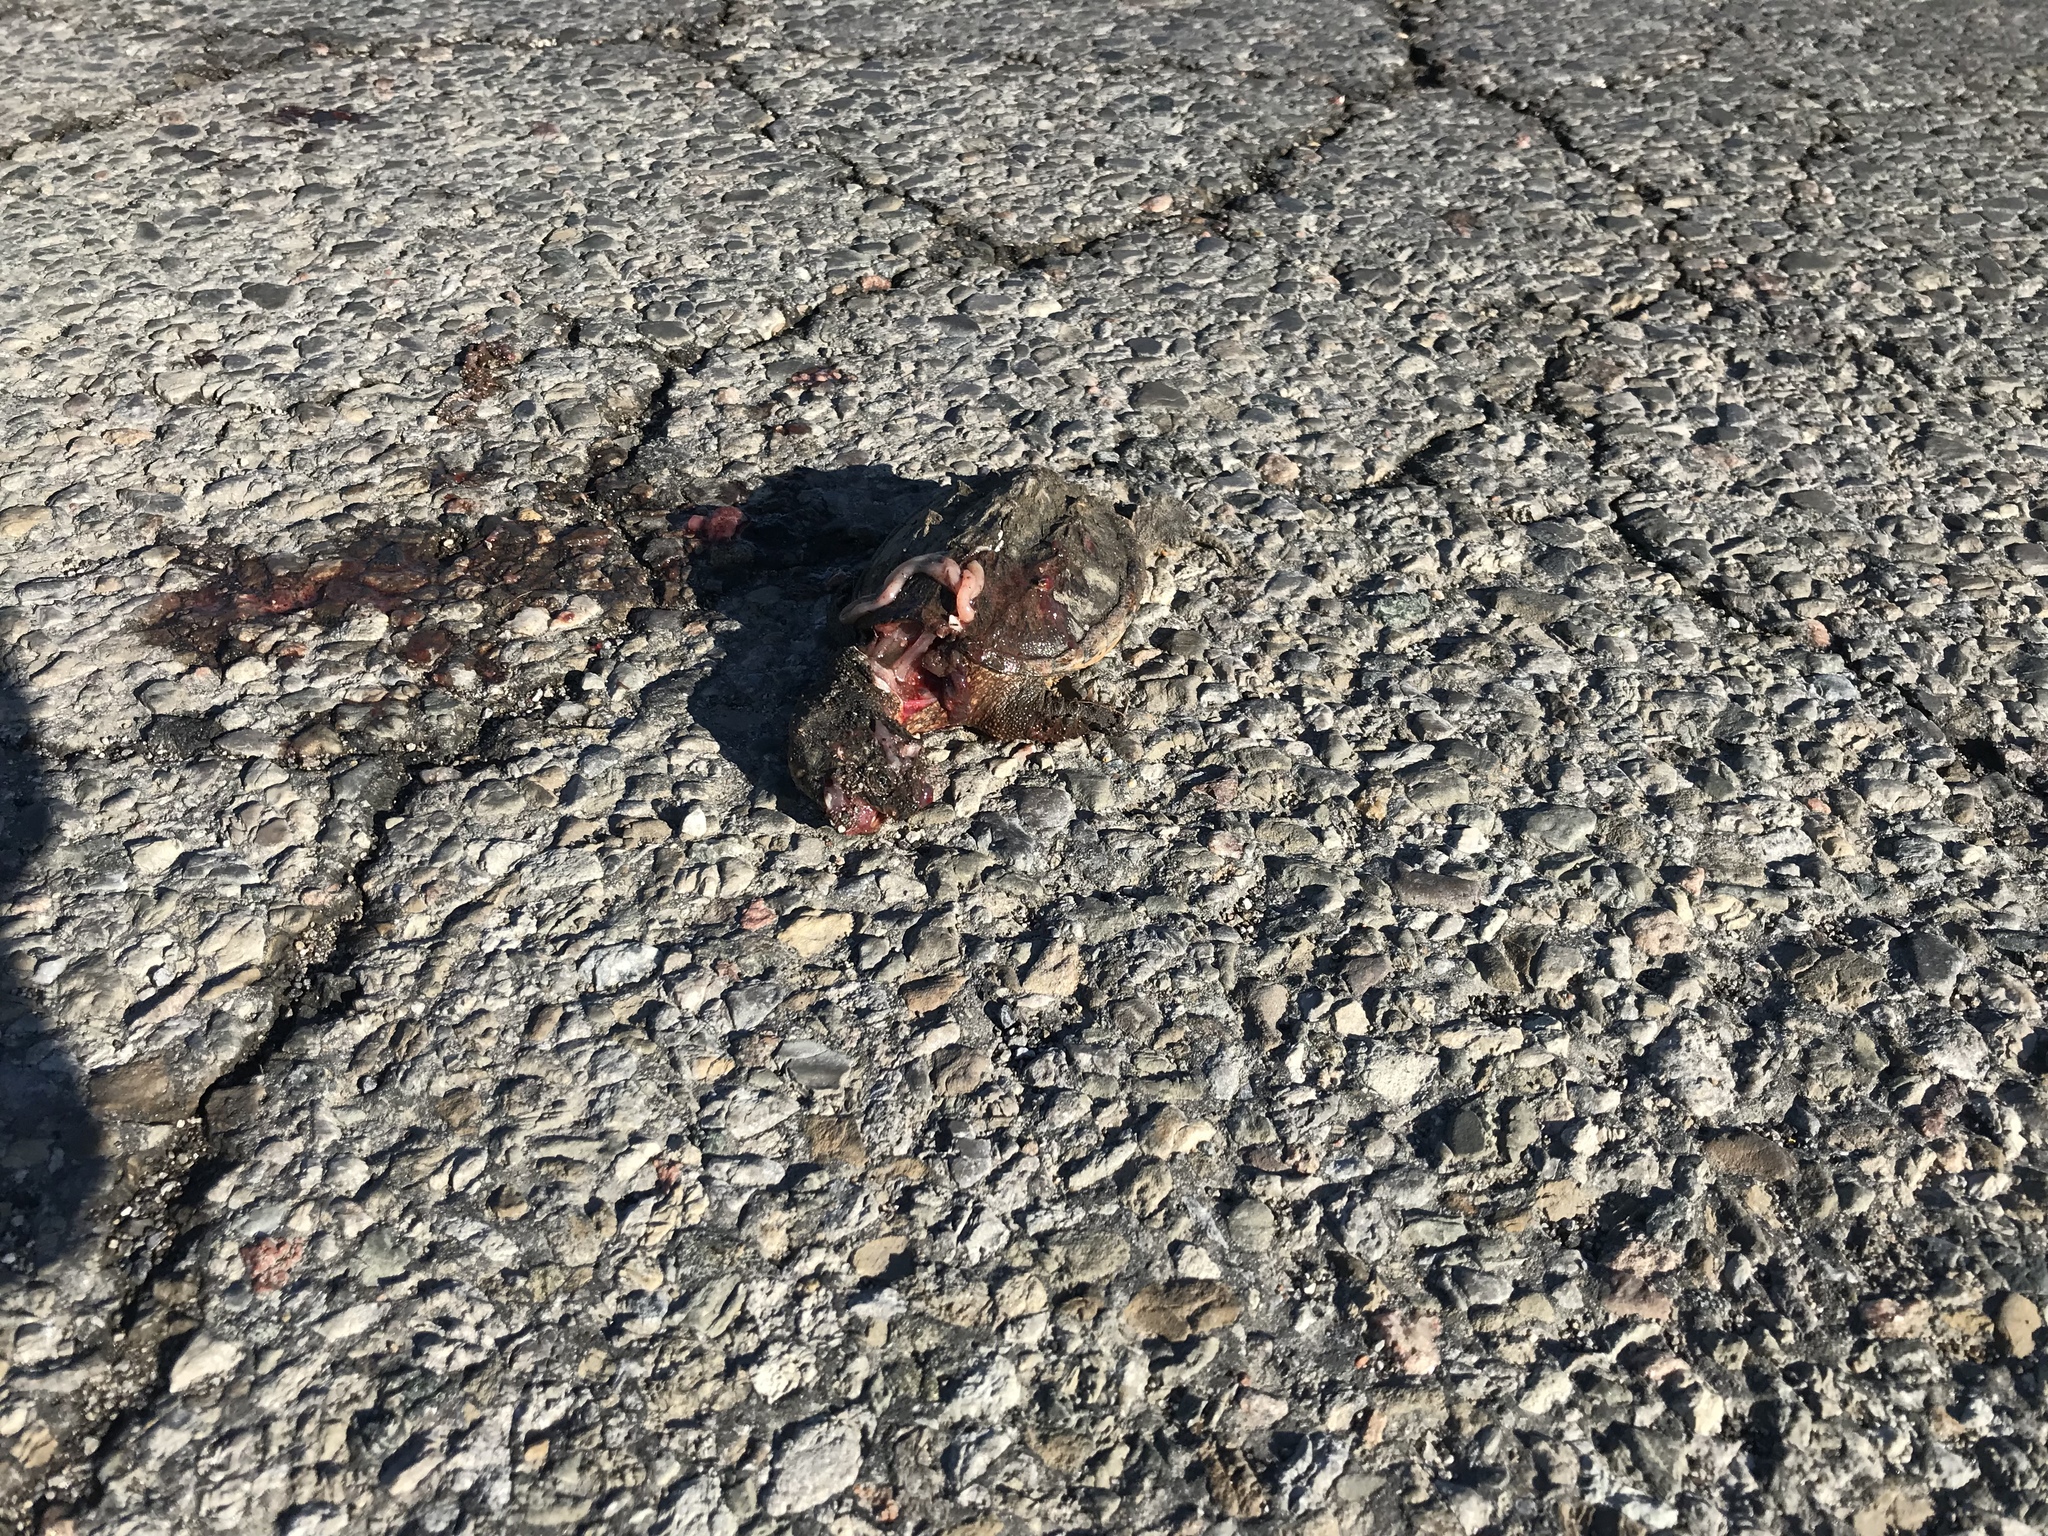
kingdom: Animalia
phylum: Chordata
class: Testudines
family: Chelydridae
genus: Chelydra
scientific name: Chelydra serpentina
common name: Common snapping turtle
